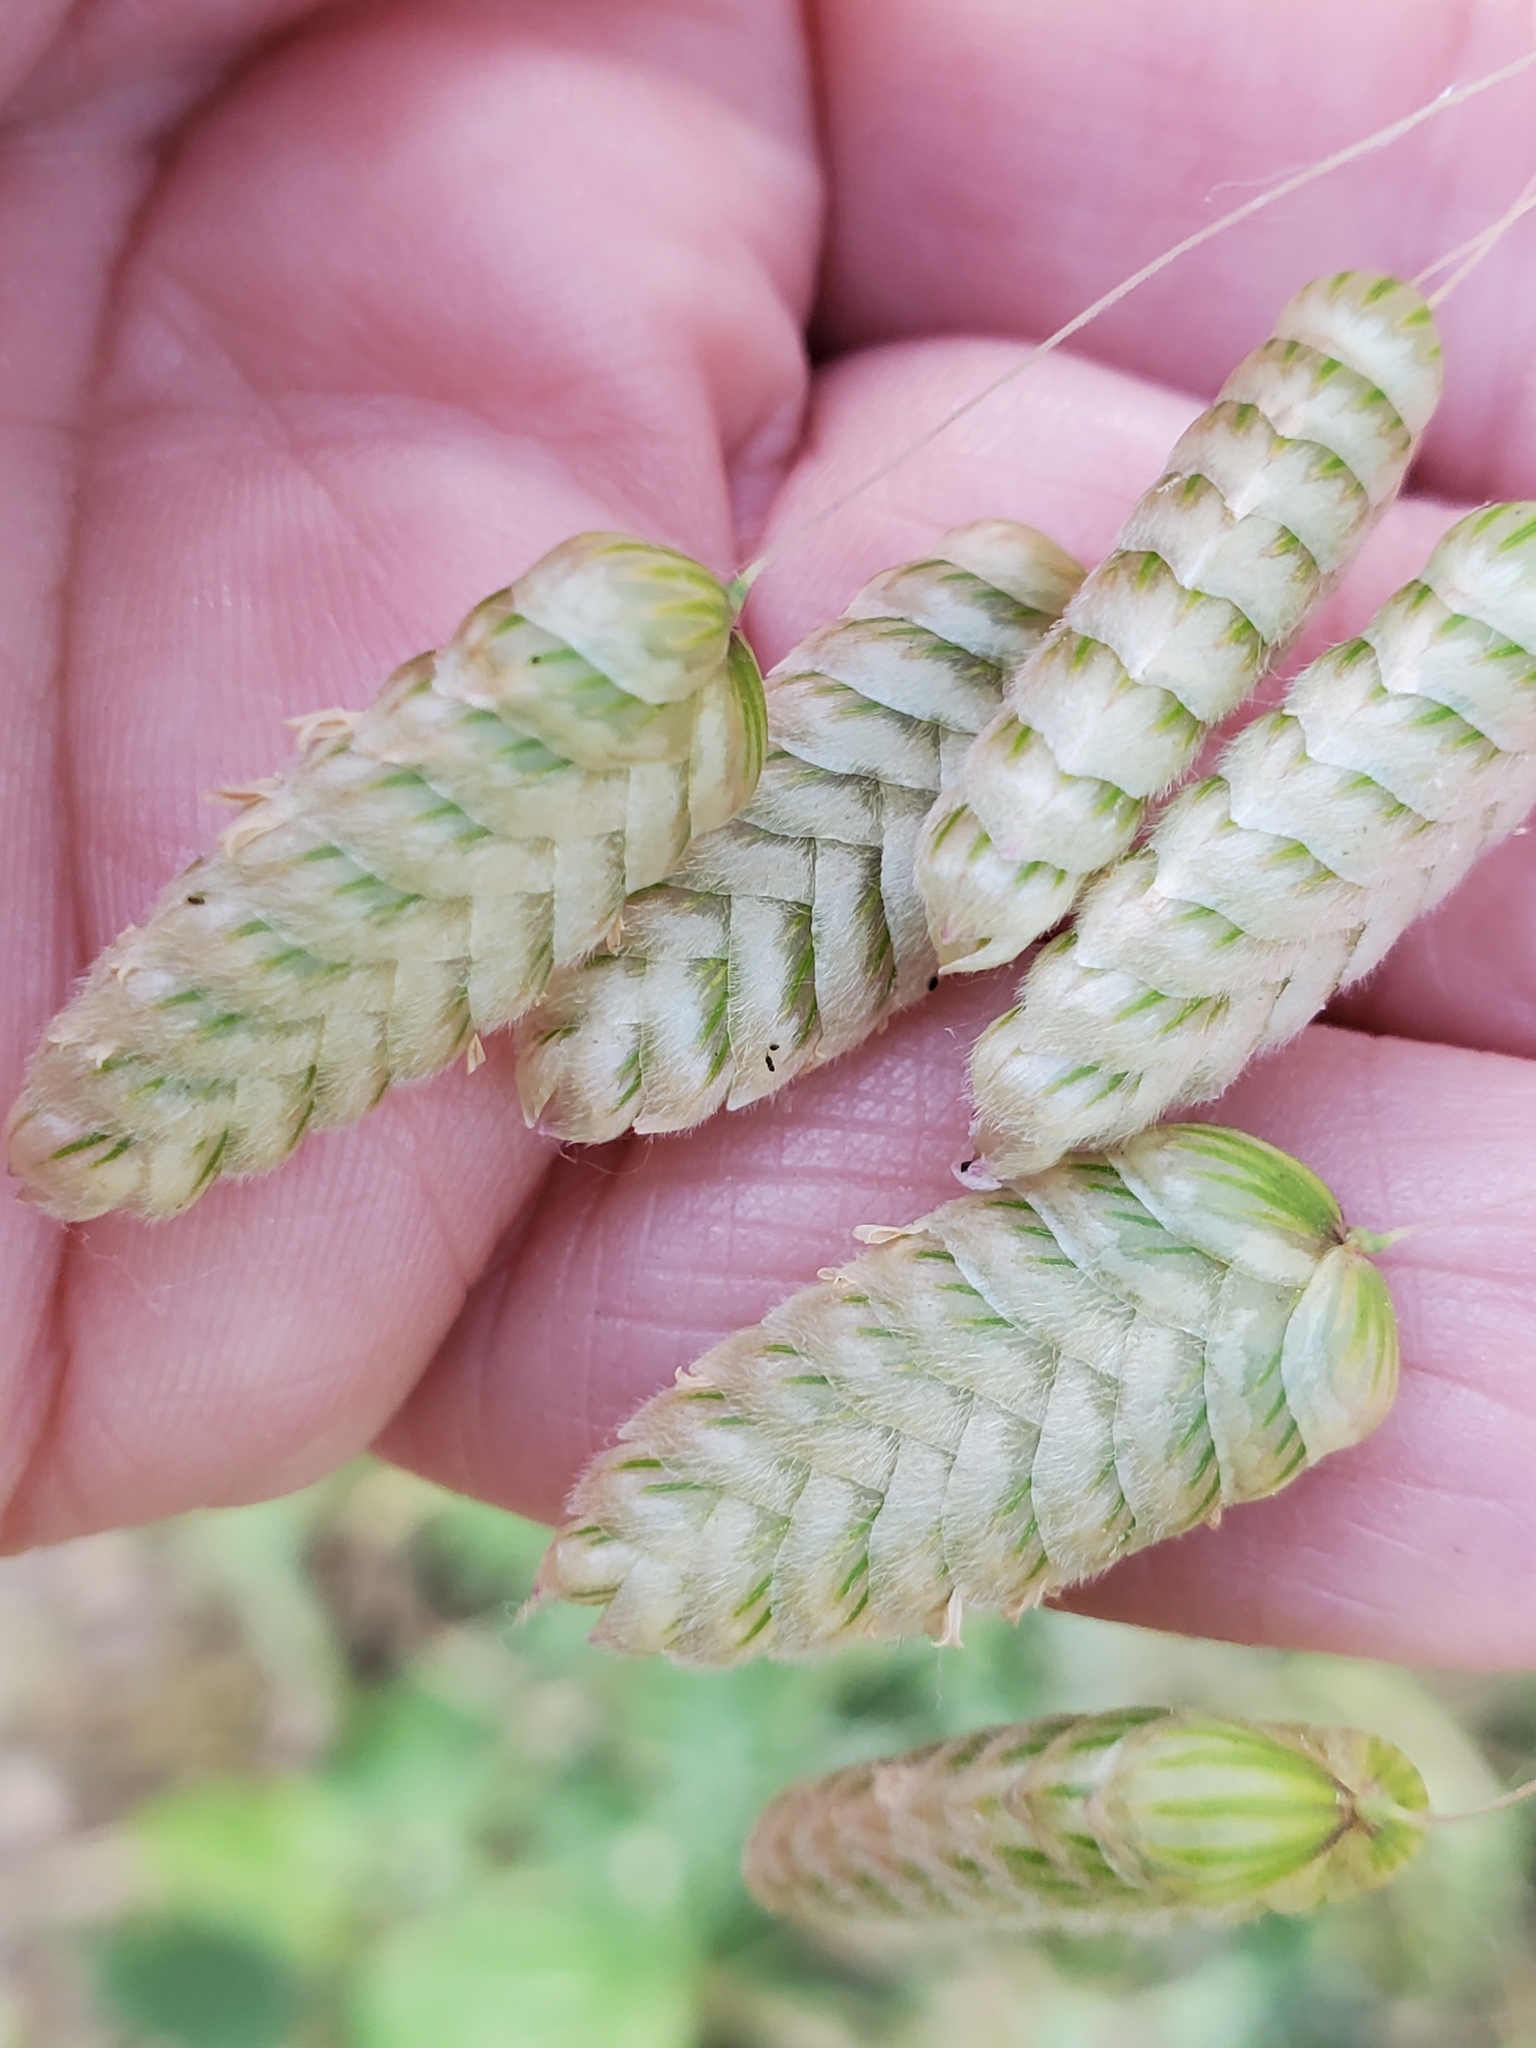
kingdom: Plantae
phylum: Tracheophyta
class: Liliopsida
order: Poales
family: Poaceae
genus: Briza
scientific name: Briza maxima
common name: Big quakinggrass
